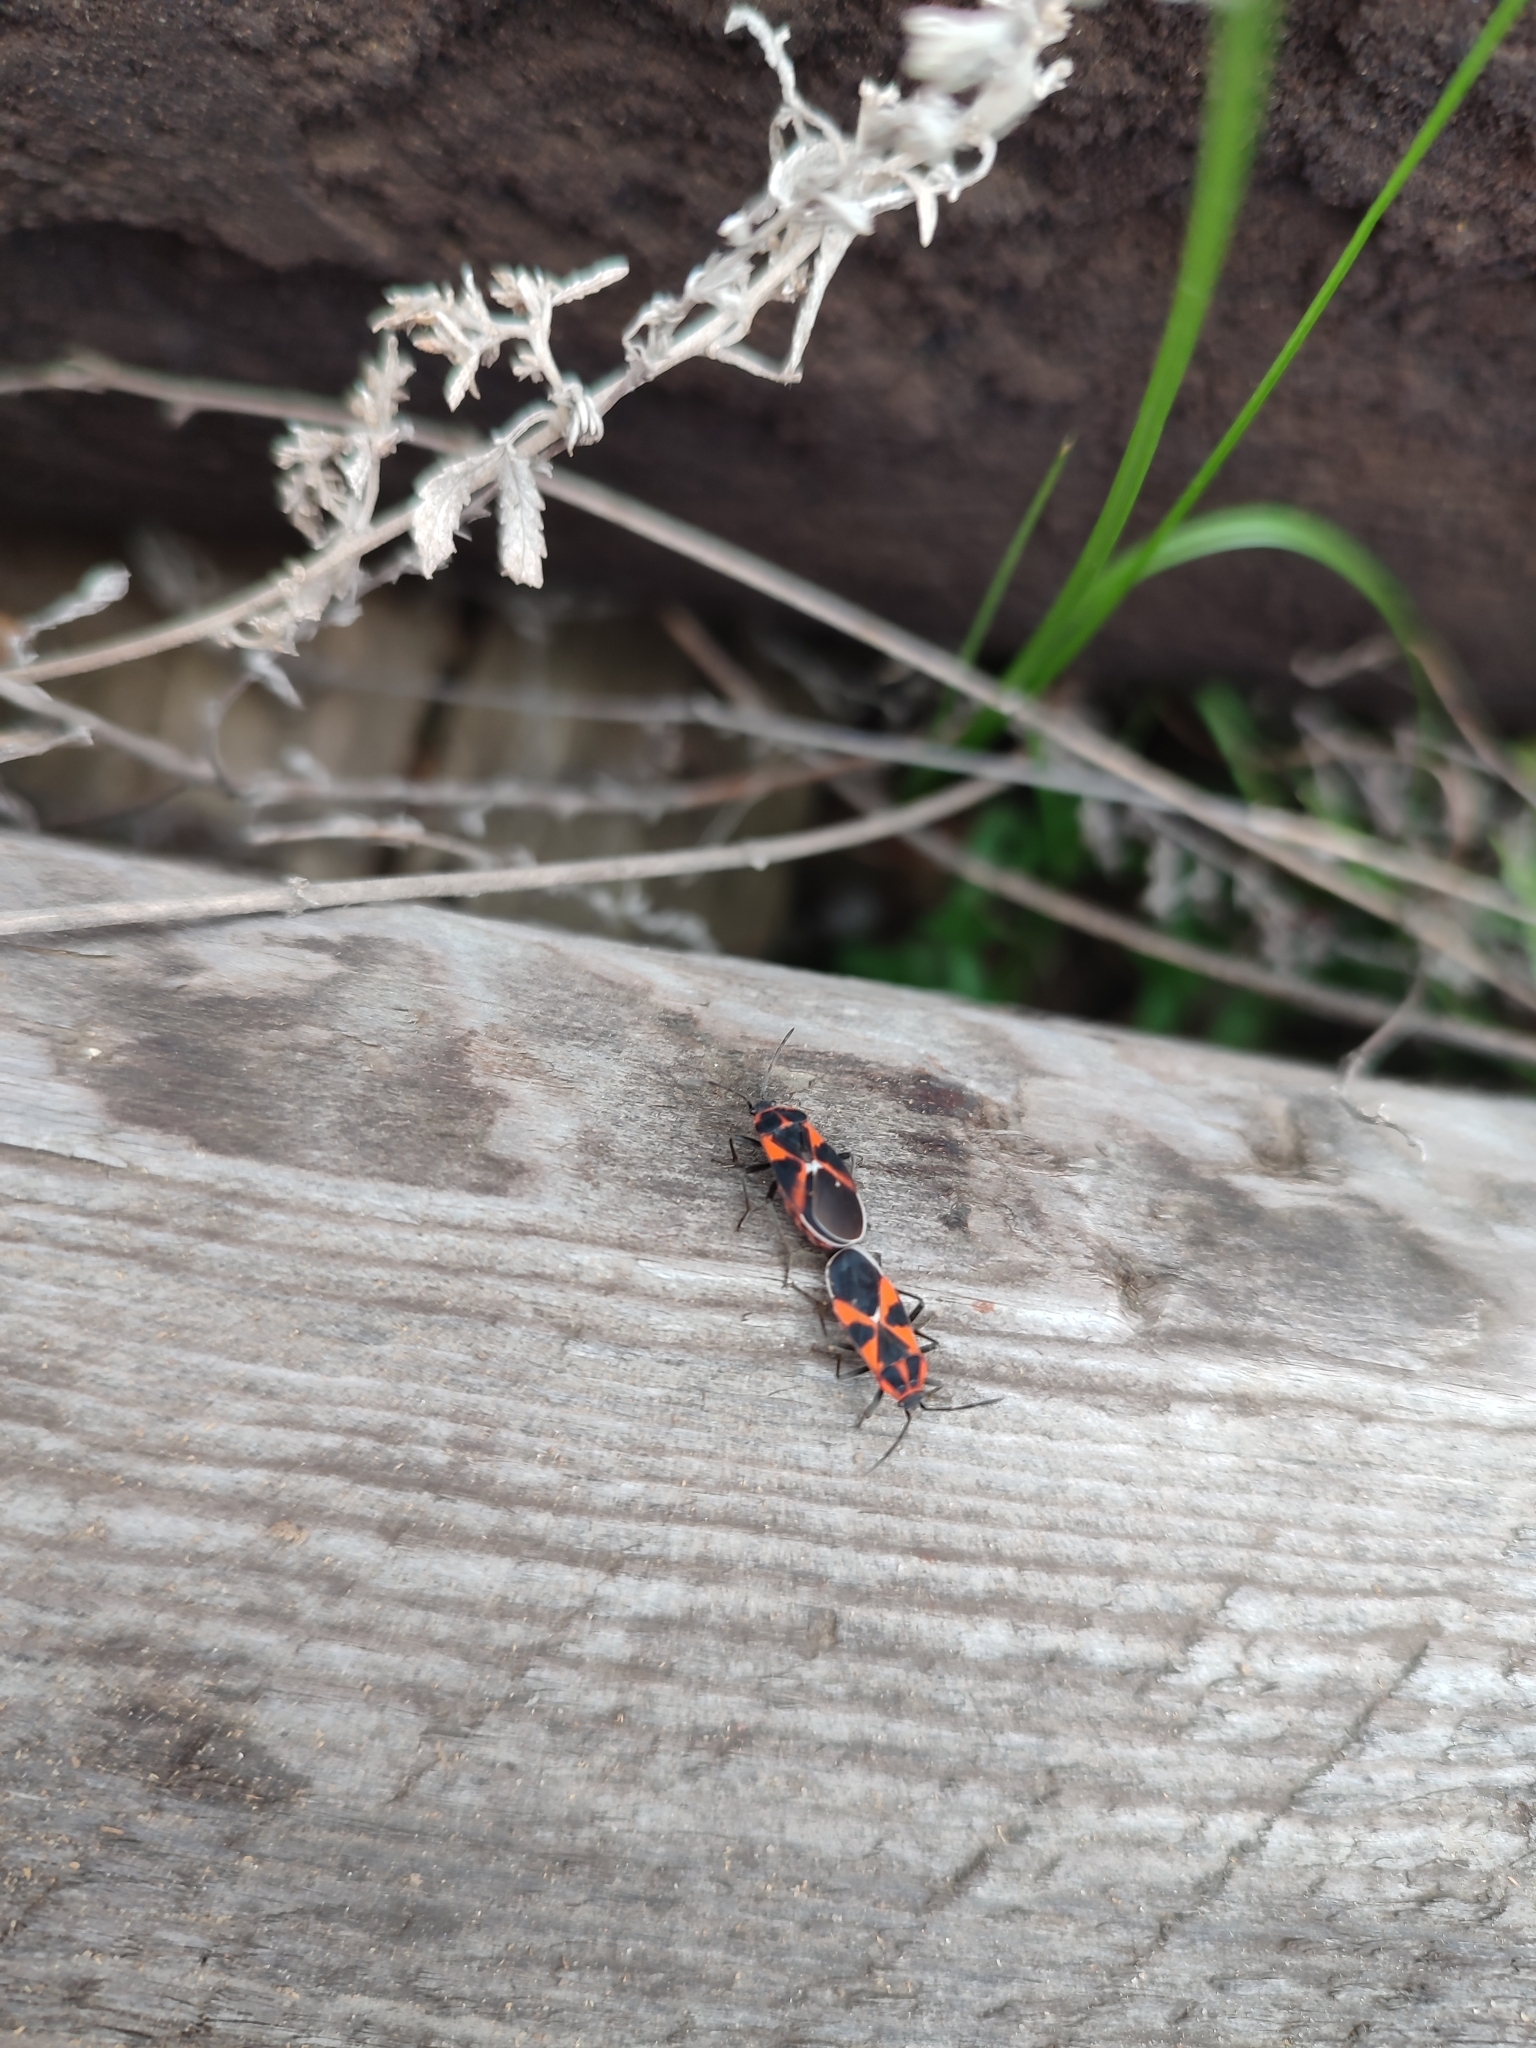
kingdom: Animalia
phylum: Arthropoda
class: Insecta
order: Hemiptera
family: Lygaeidae
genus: Tropidothorax
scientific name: Tropidothorax leucopterus
